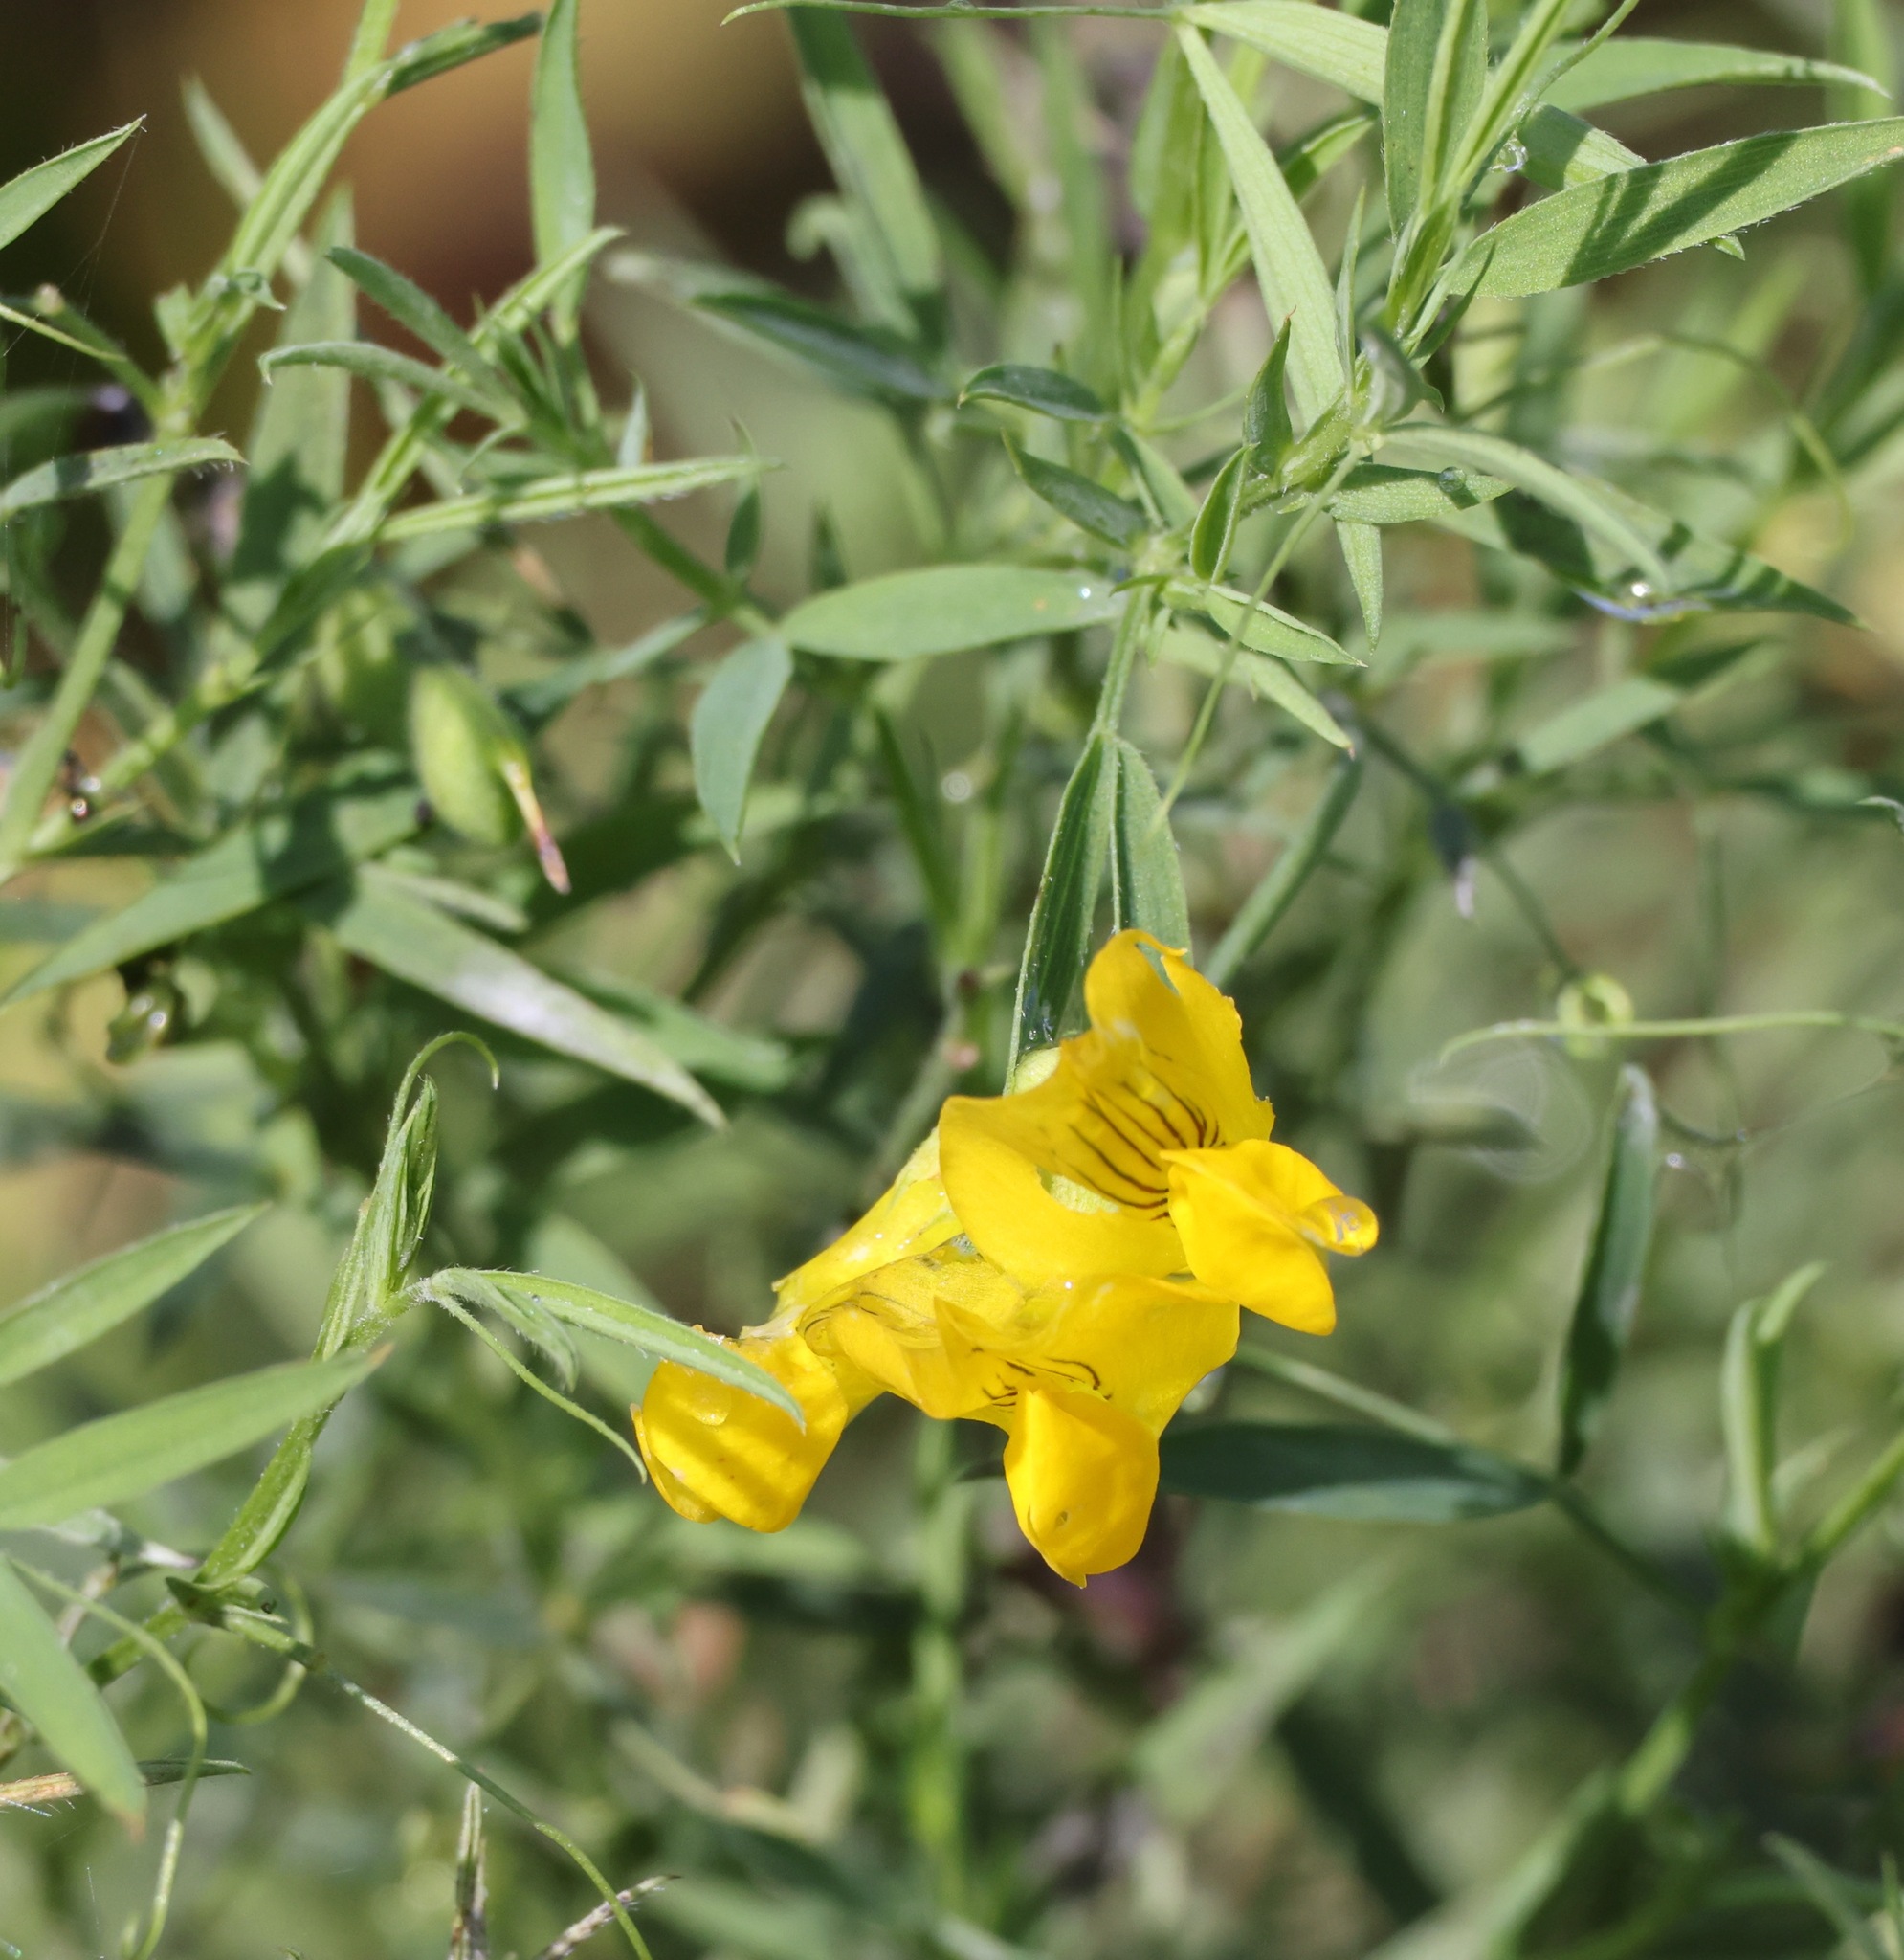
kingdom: Plantae
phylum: Tracheophyta
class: Magnoliopsida
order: Fabales
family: Fabaceae
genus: Lathyrus
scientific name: Lathyrus pratensis
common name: Meadow vetchling
